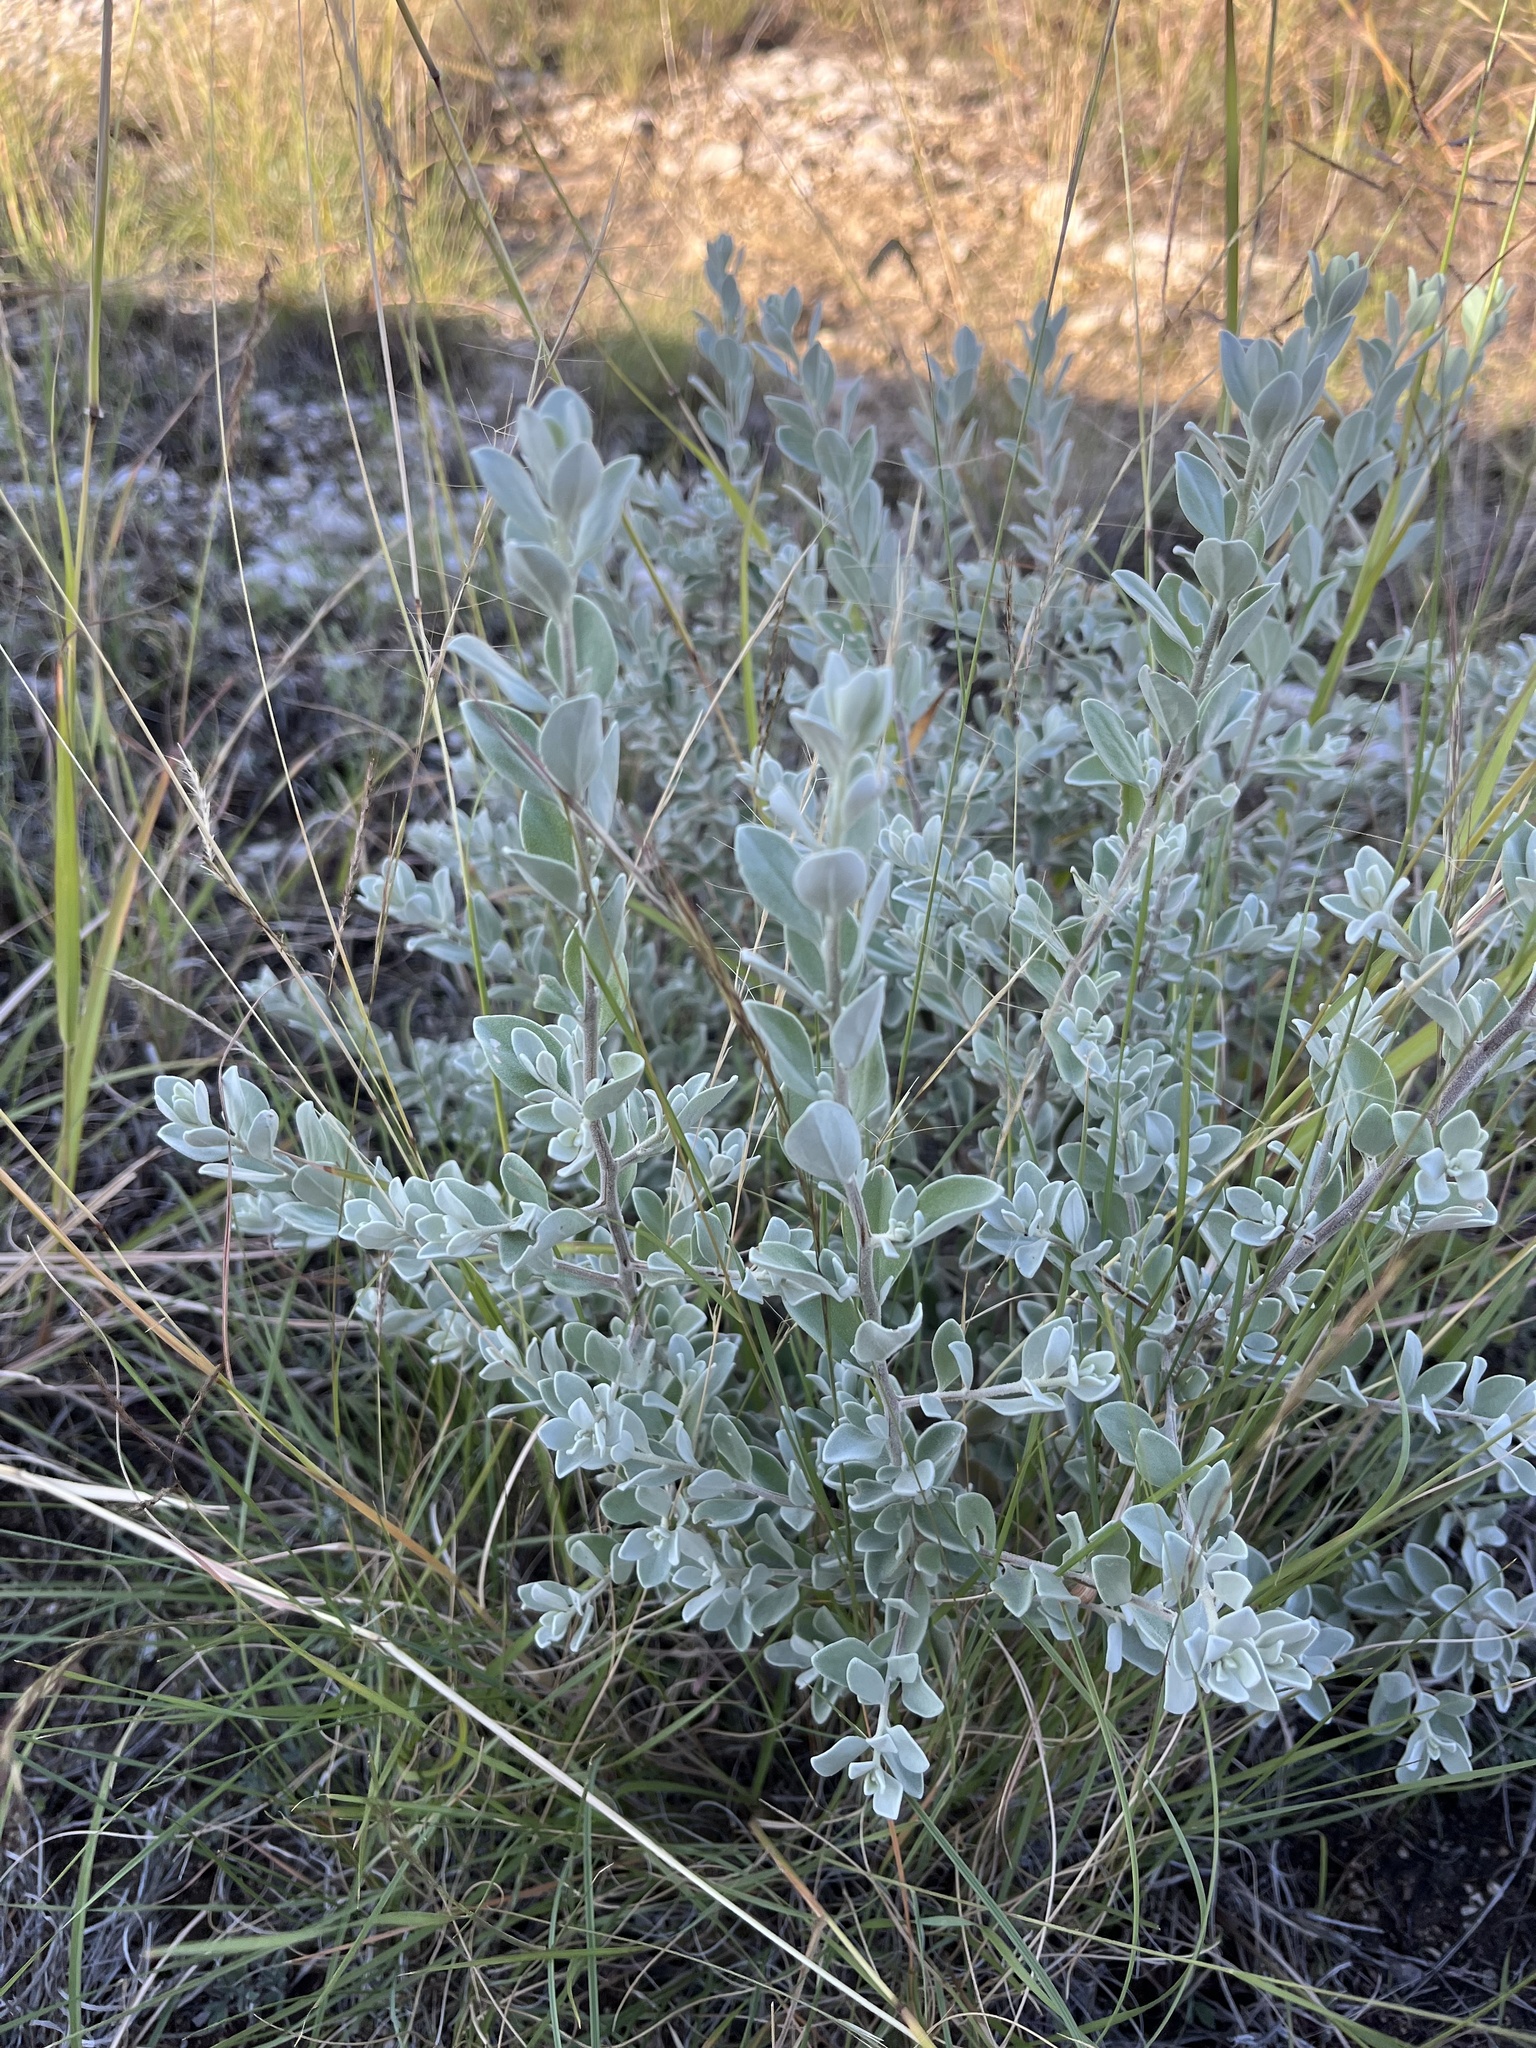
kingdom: Plantae
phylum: Tracheophyta
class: Magnoliopsida
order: Lamiales
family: Scrophulariaceae
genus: Leucophyllum
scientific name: Leucophyllum frutescens
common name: Texas silverleaf
